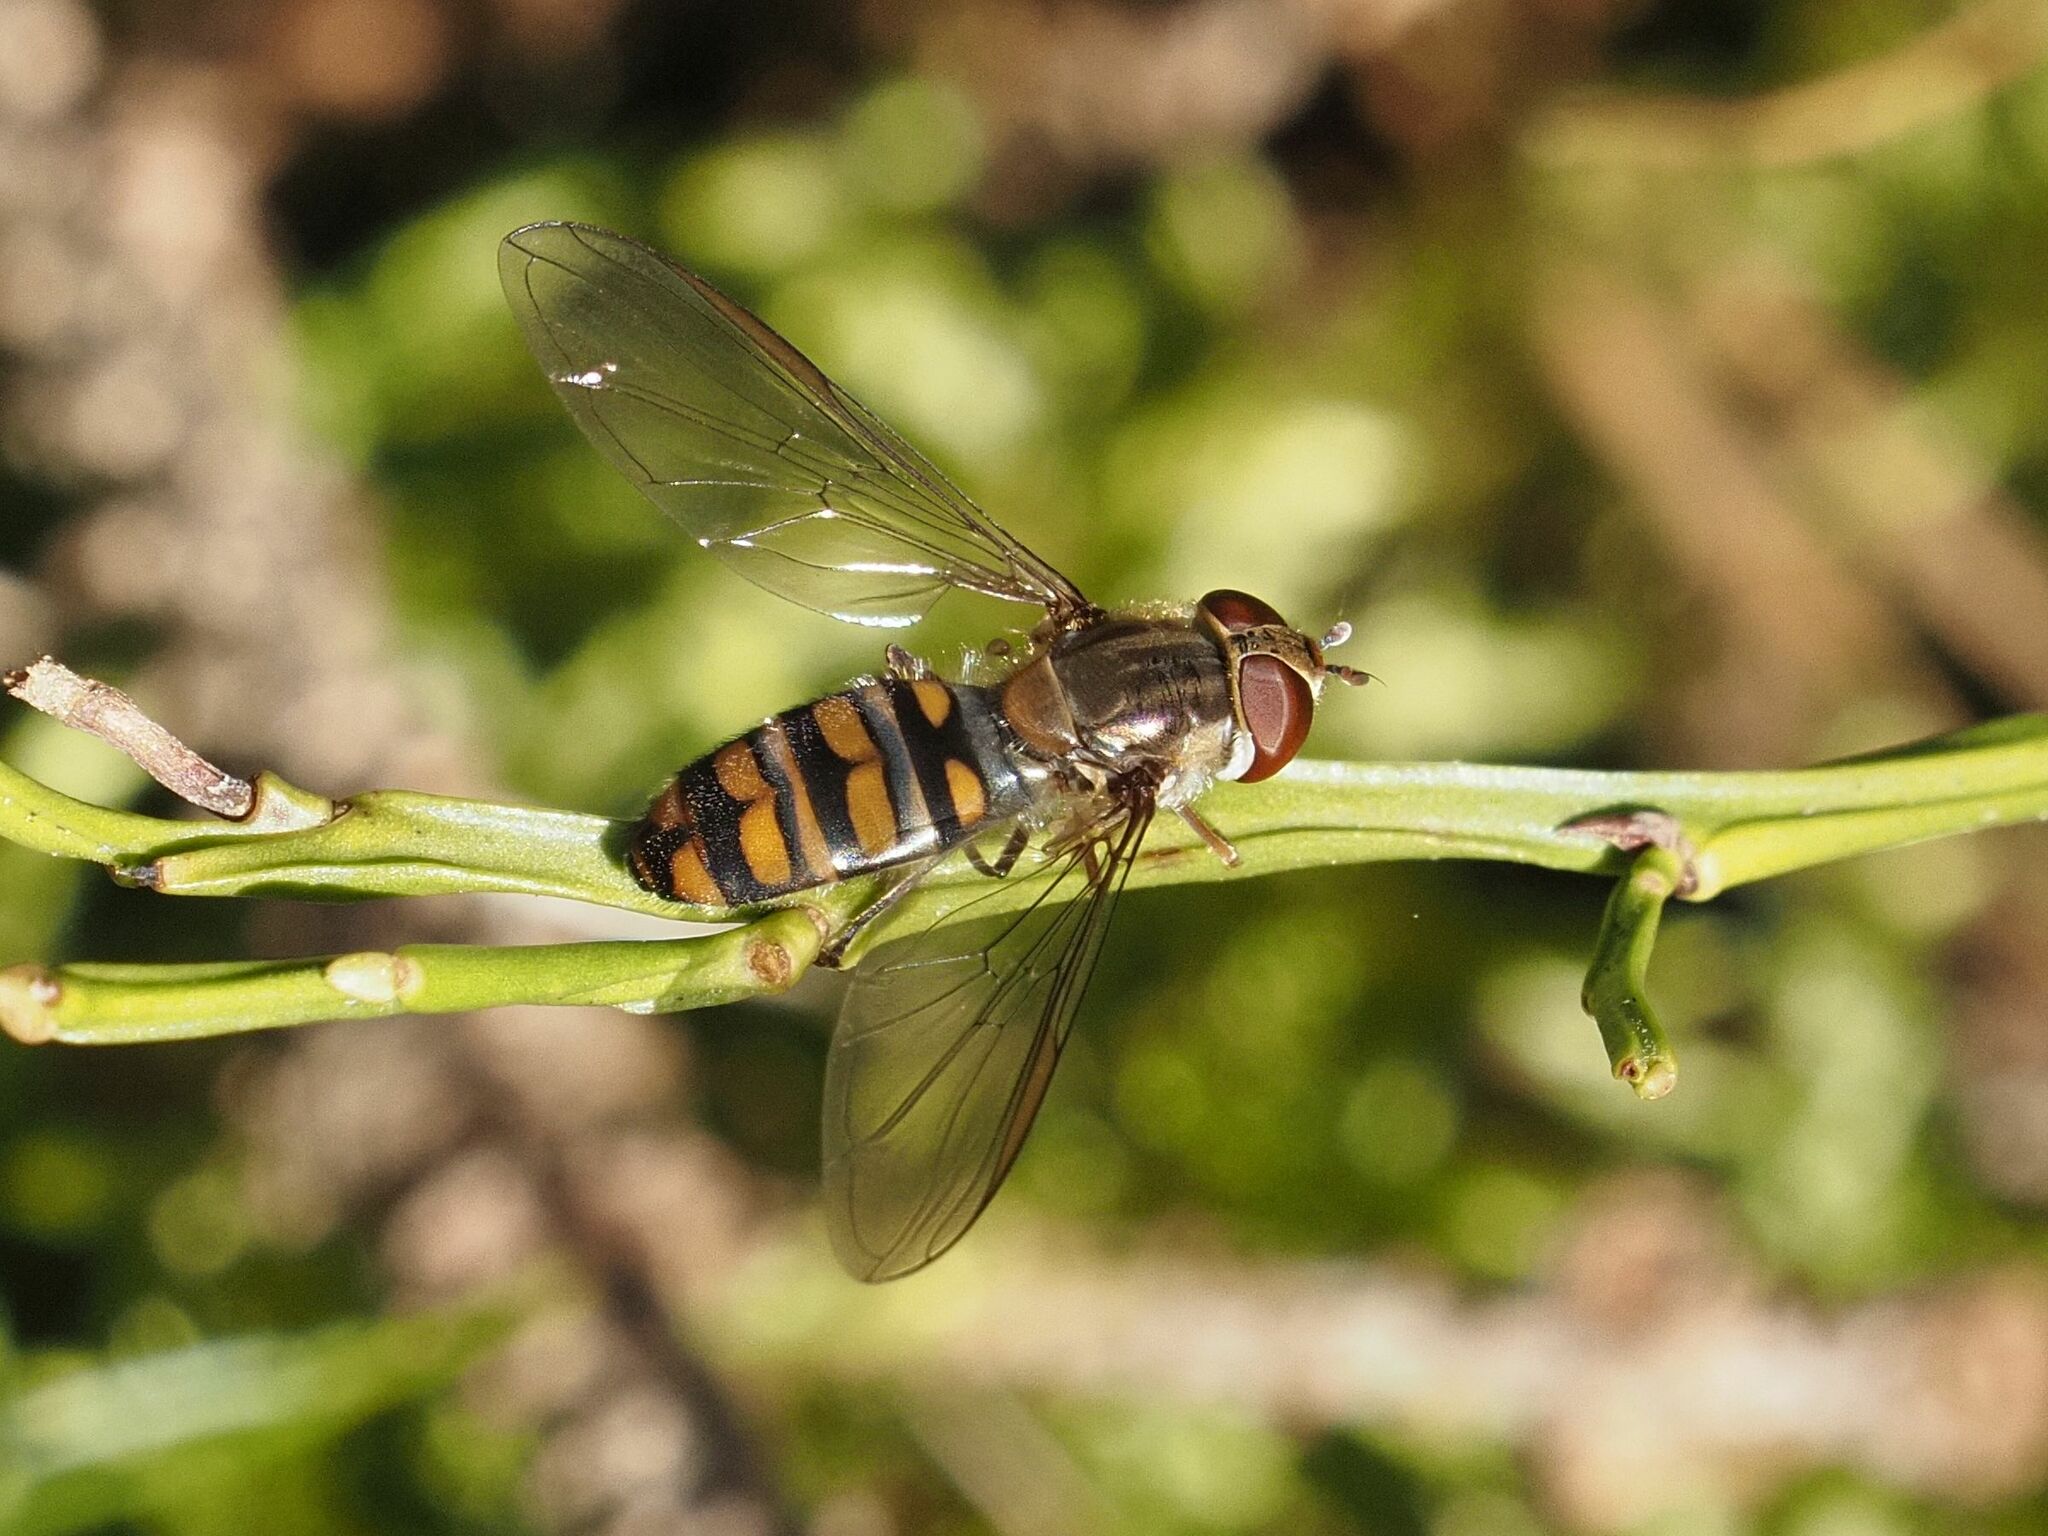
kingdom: Animalia
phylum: Arthropoda
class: Insecta
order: Diptera
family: Syrphidae
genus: Episyrphus
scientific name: Episyrphus balteatus
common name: Marmalade hoverfly
